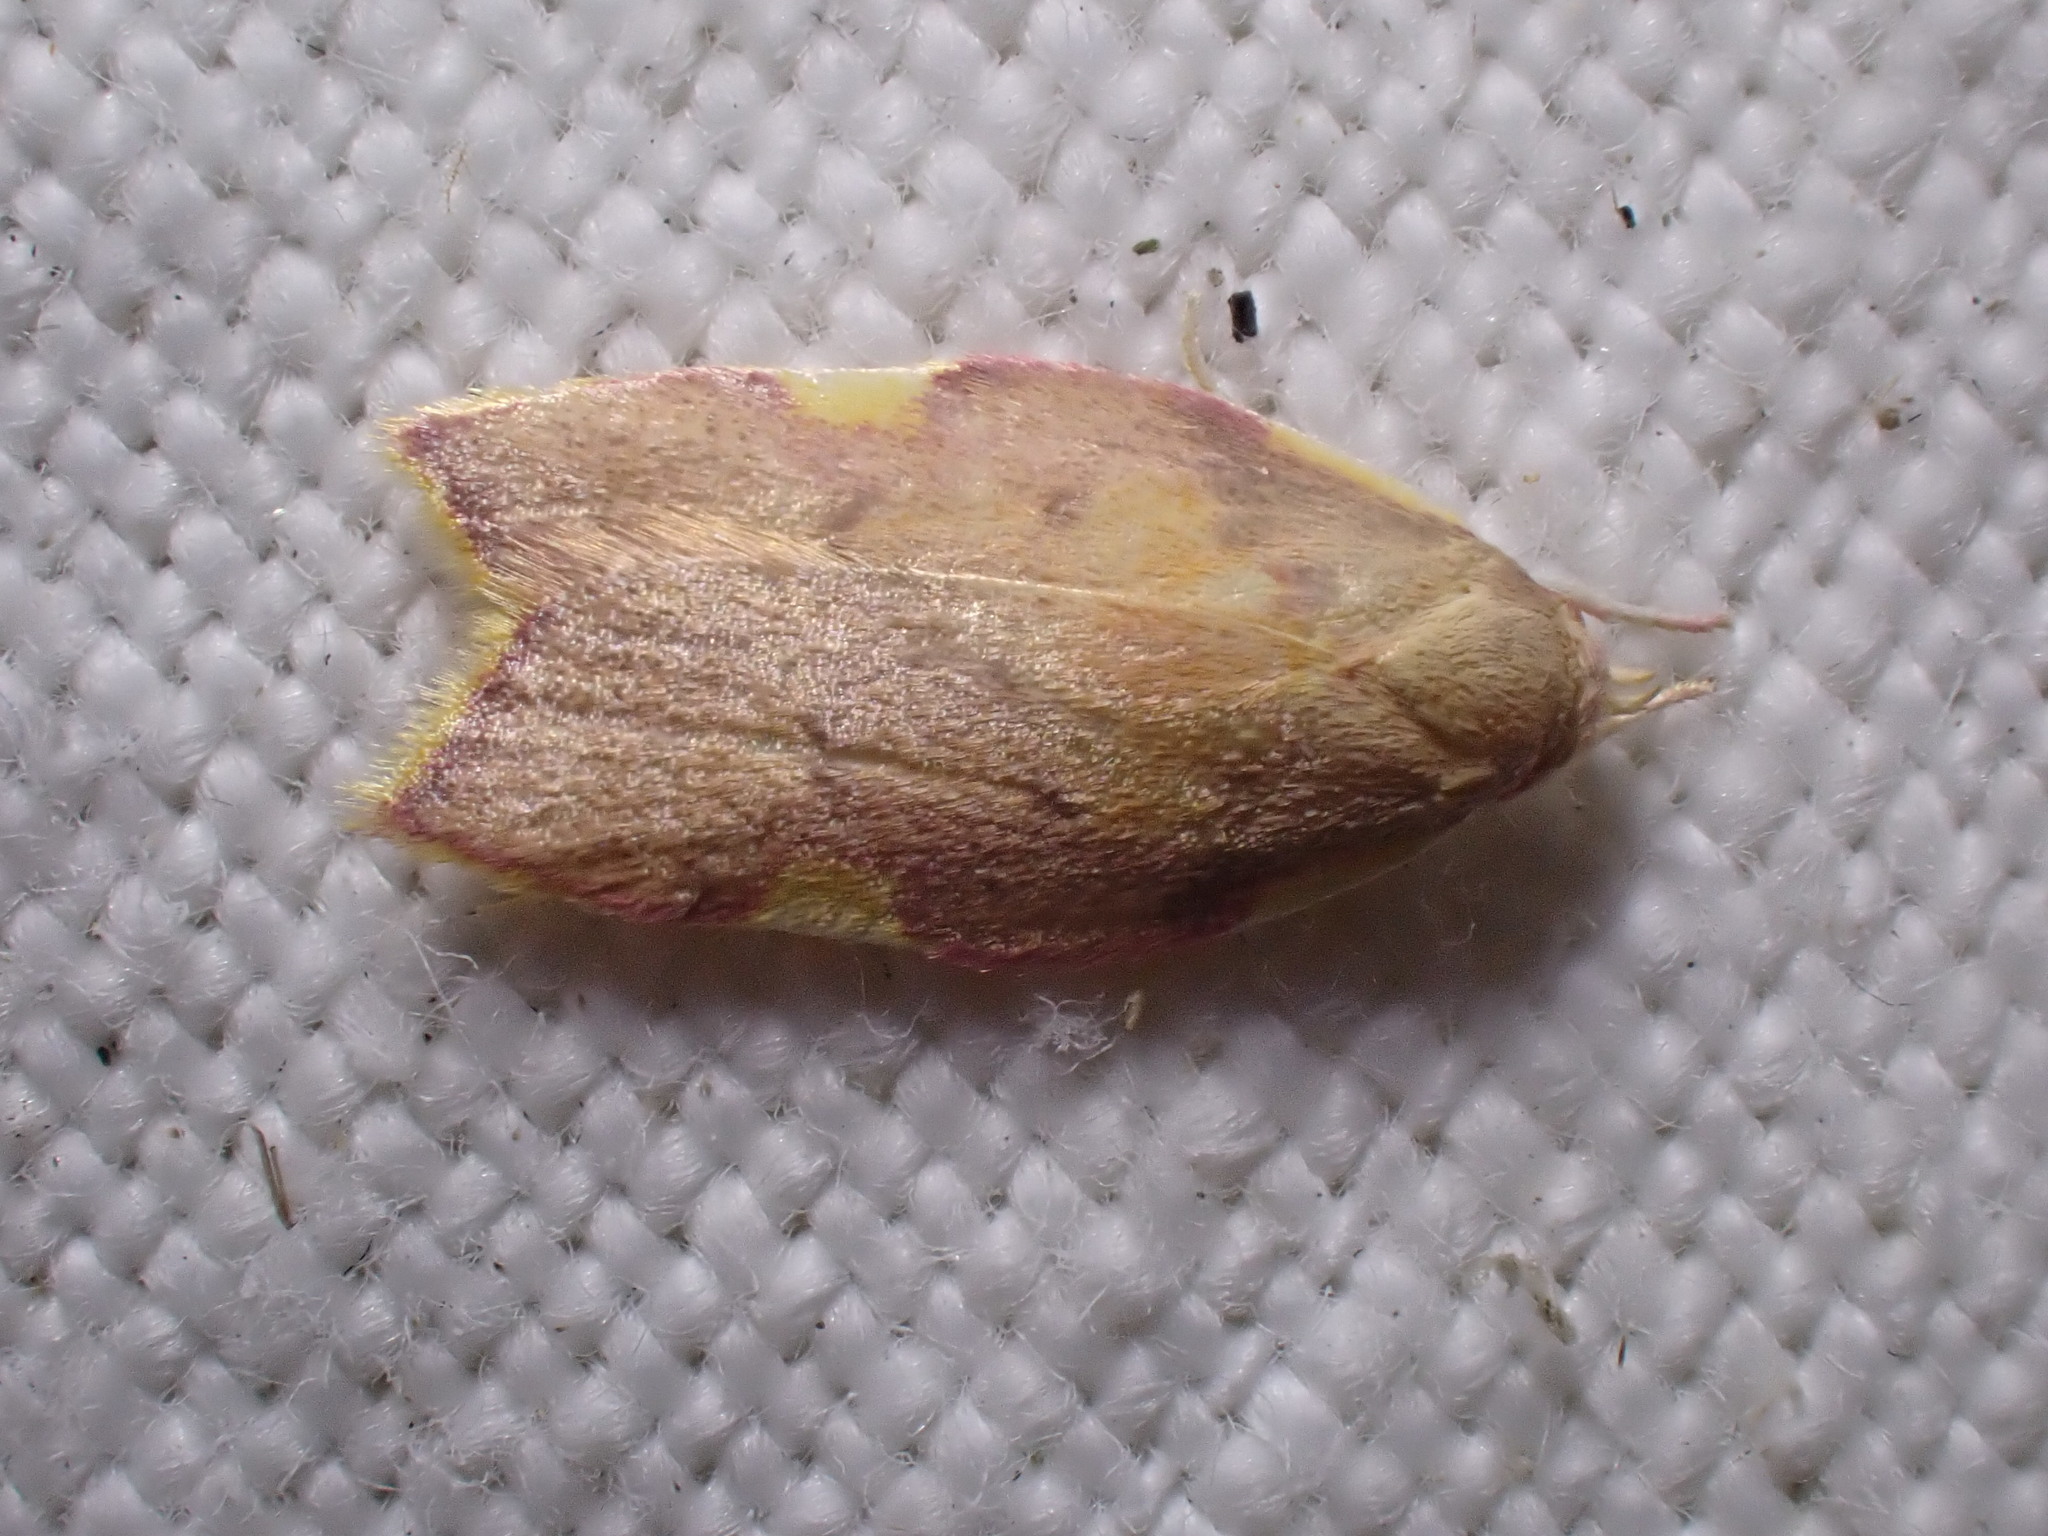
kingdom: Animalia
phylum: Arthropoda
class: Insecta
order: Lepidoptera
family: Peleopodidae
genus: Carcina
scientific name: Carcina quercana
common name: Moth
